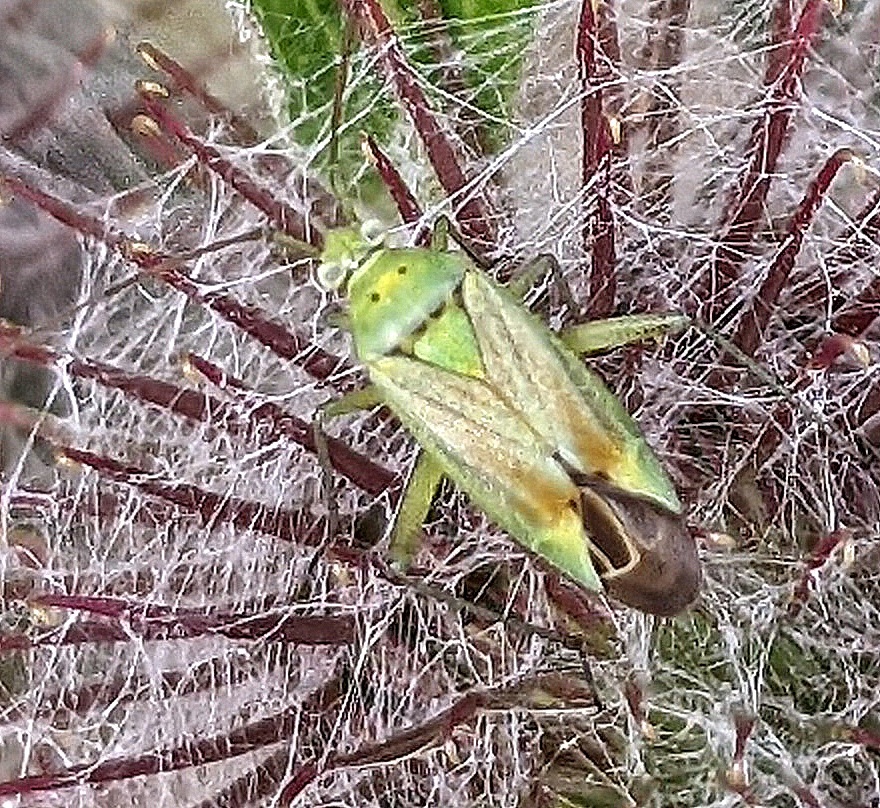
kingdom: Animalia
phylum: Arthropoda
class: Insecta
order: Hemiptera
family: Miridae
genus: Closterotomus
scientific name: Closterotomus norvegicus
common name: Plant bug
